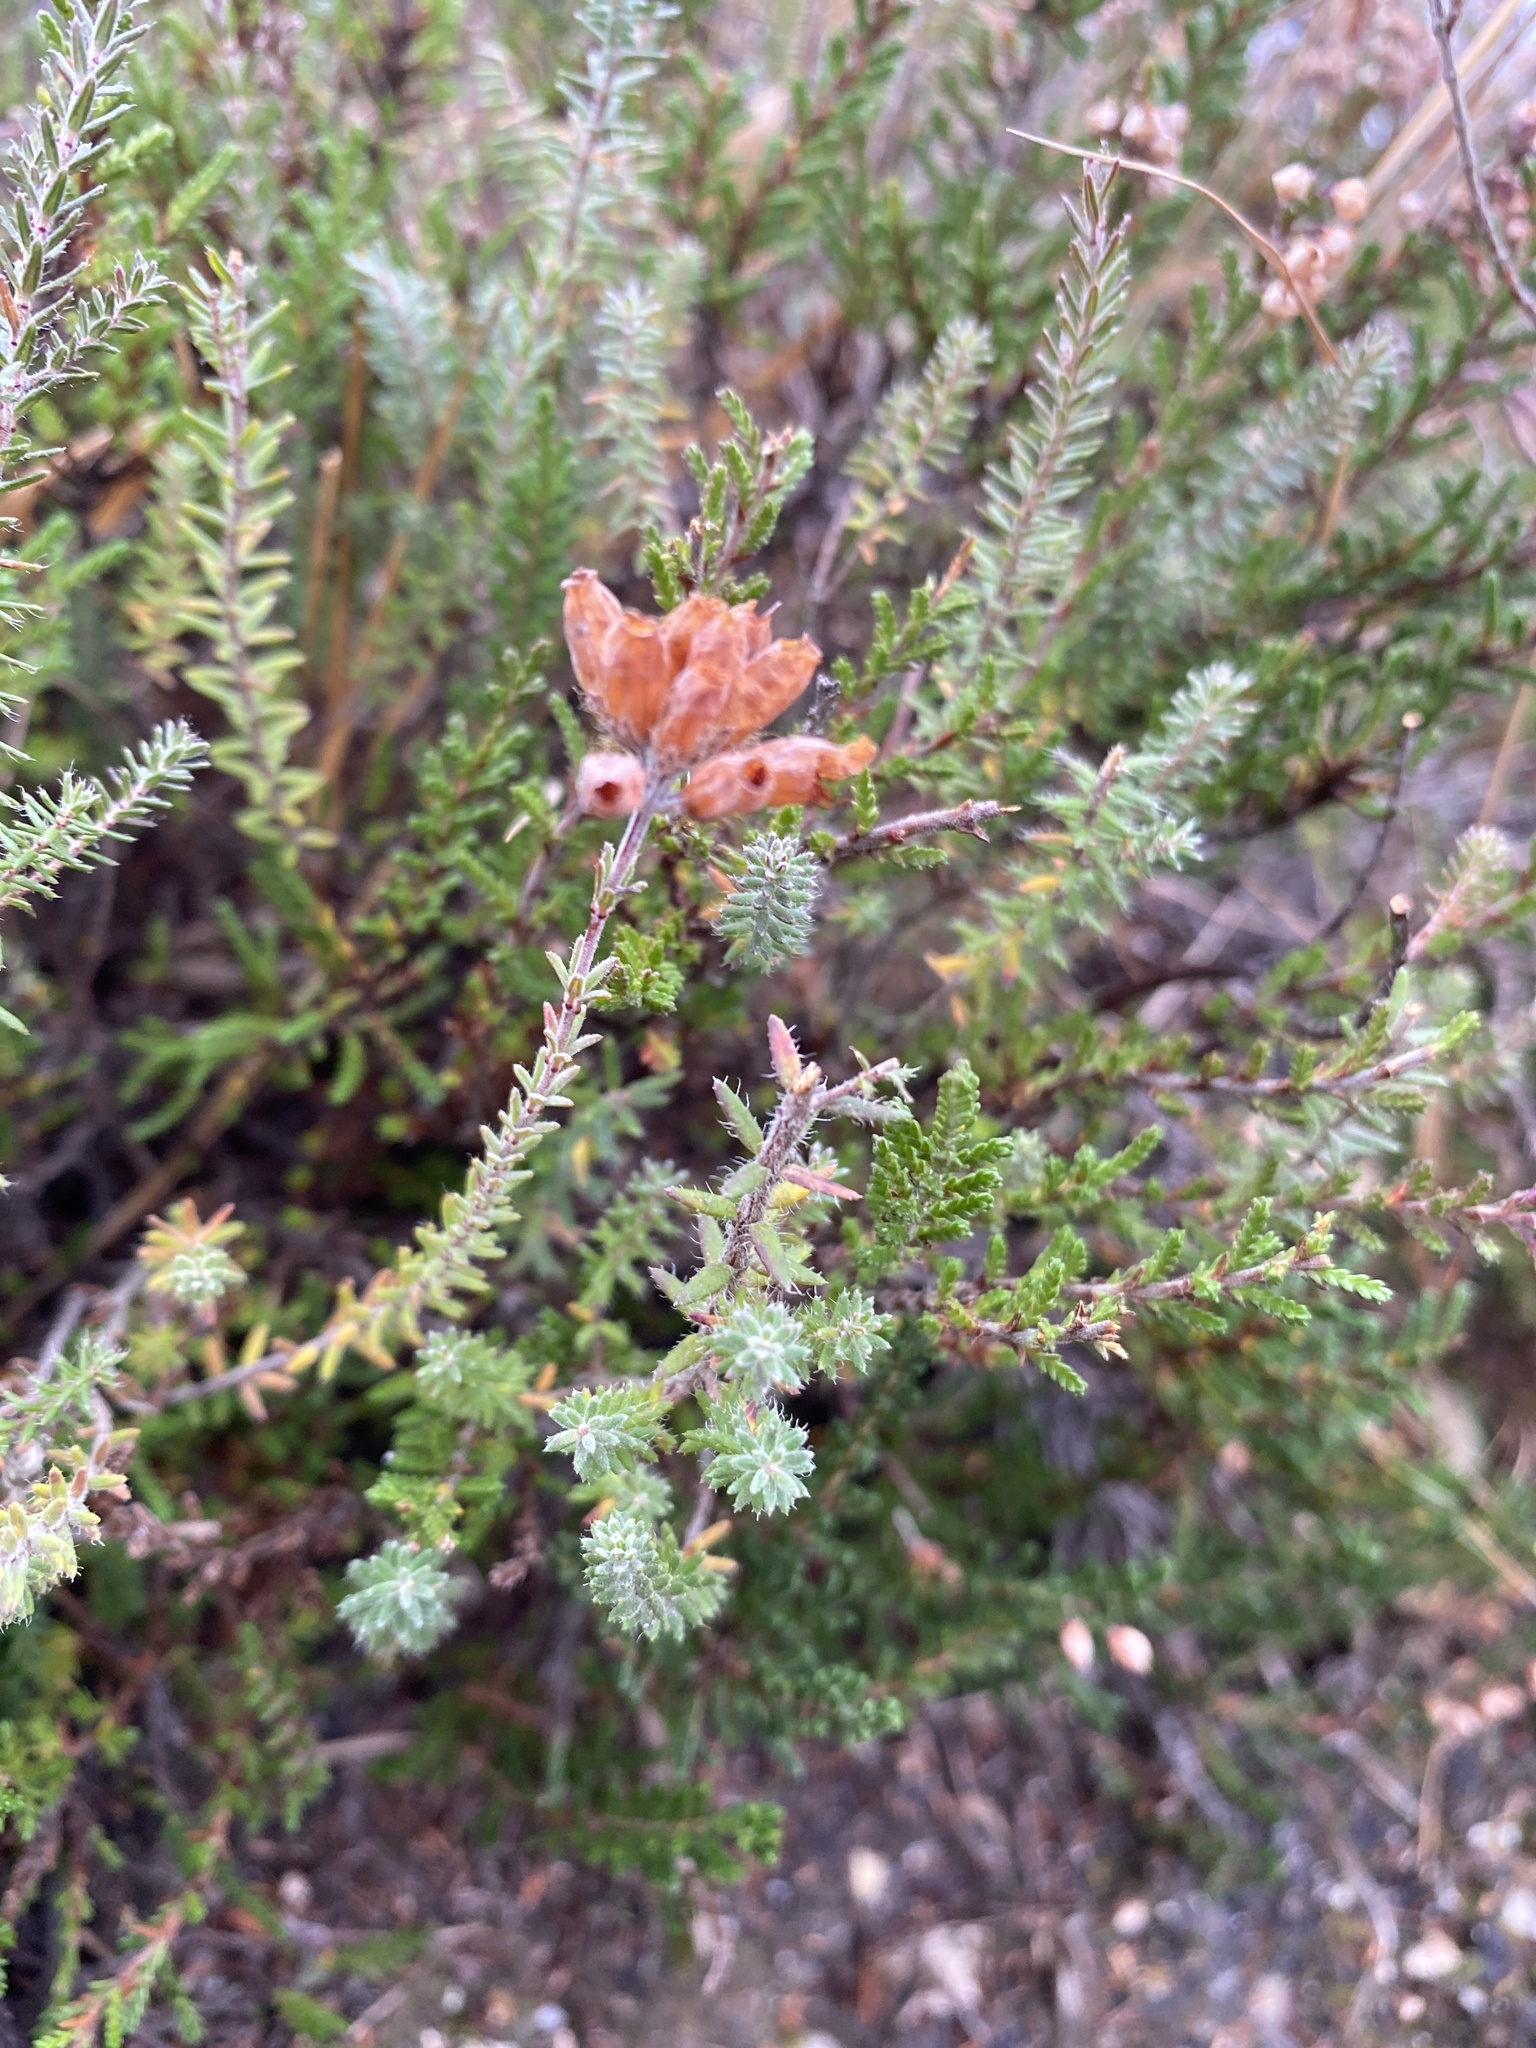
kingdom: Plantae
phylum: Tracheophyta
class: Magnoliopsida
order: Ericales
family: Ericaceae
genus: Erica
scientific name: Erica tetralix
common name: Cross-leaved heath
